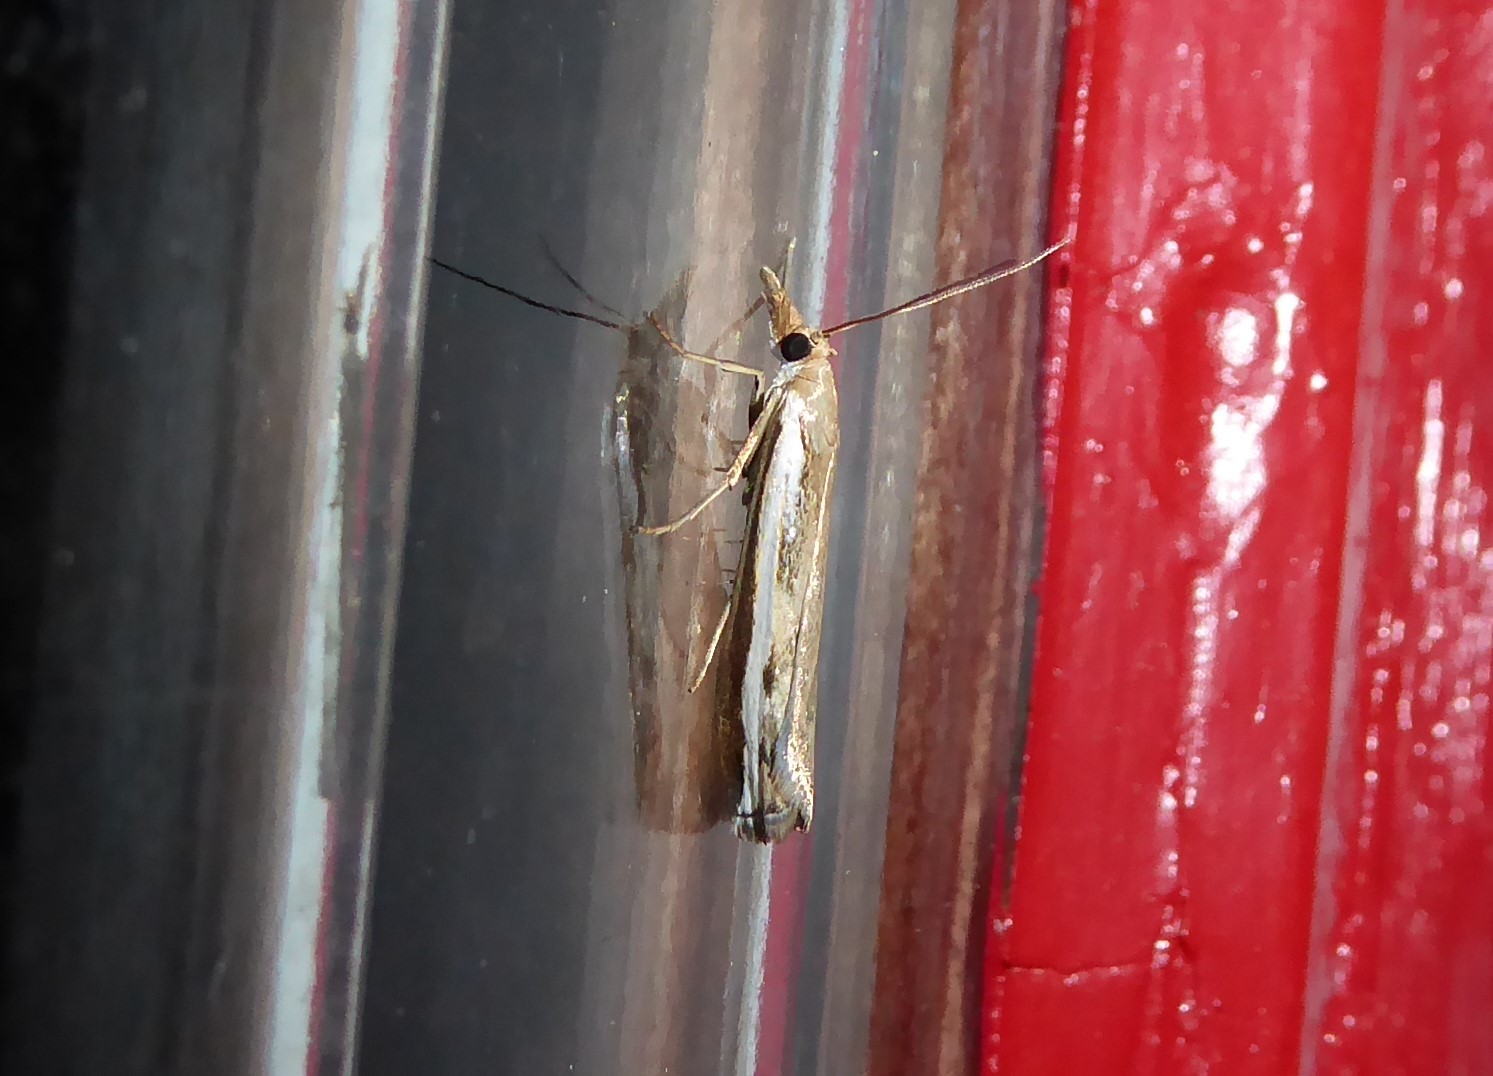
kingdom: Animalia
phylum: Arthropoda
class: Insecta
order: Lepidoptera
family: Crambidae
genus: Orocrambus
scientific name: Orocrambus flexuosellus
